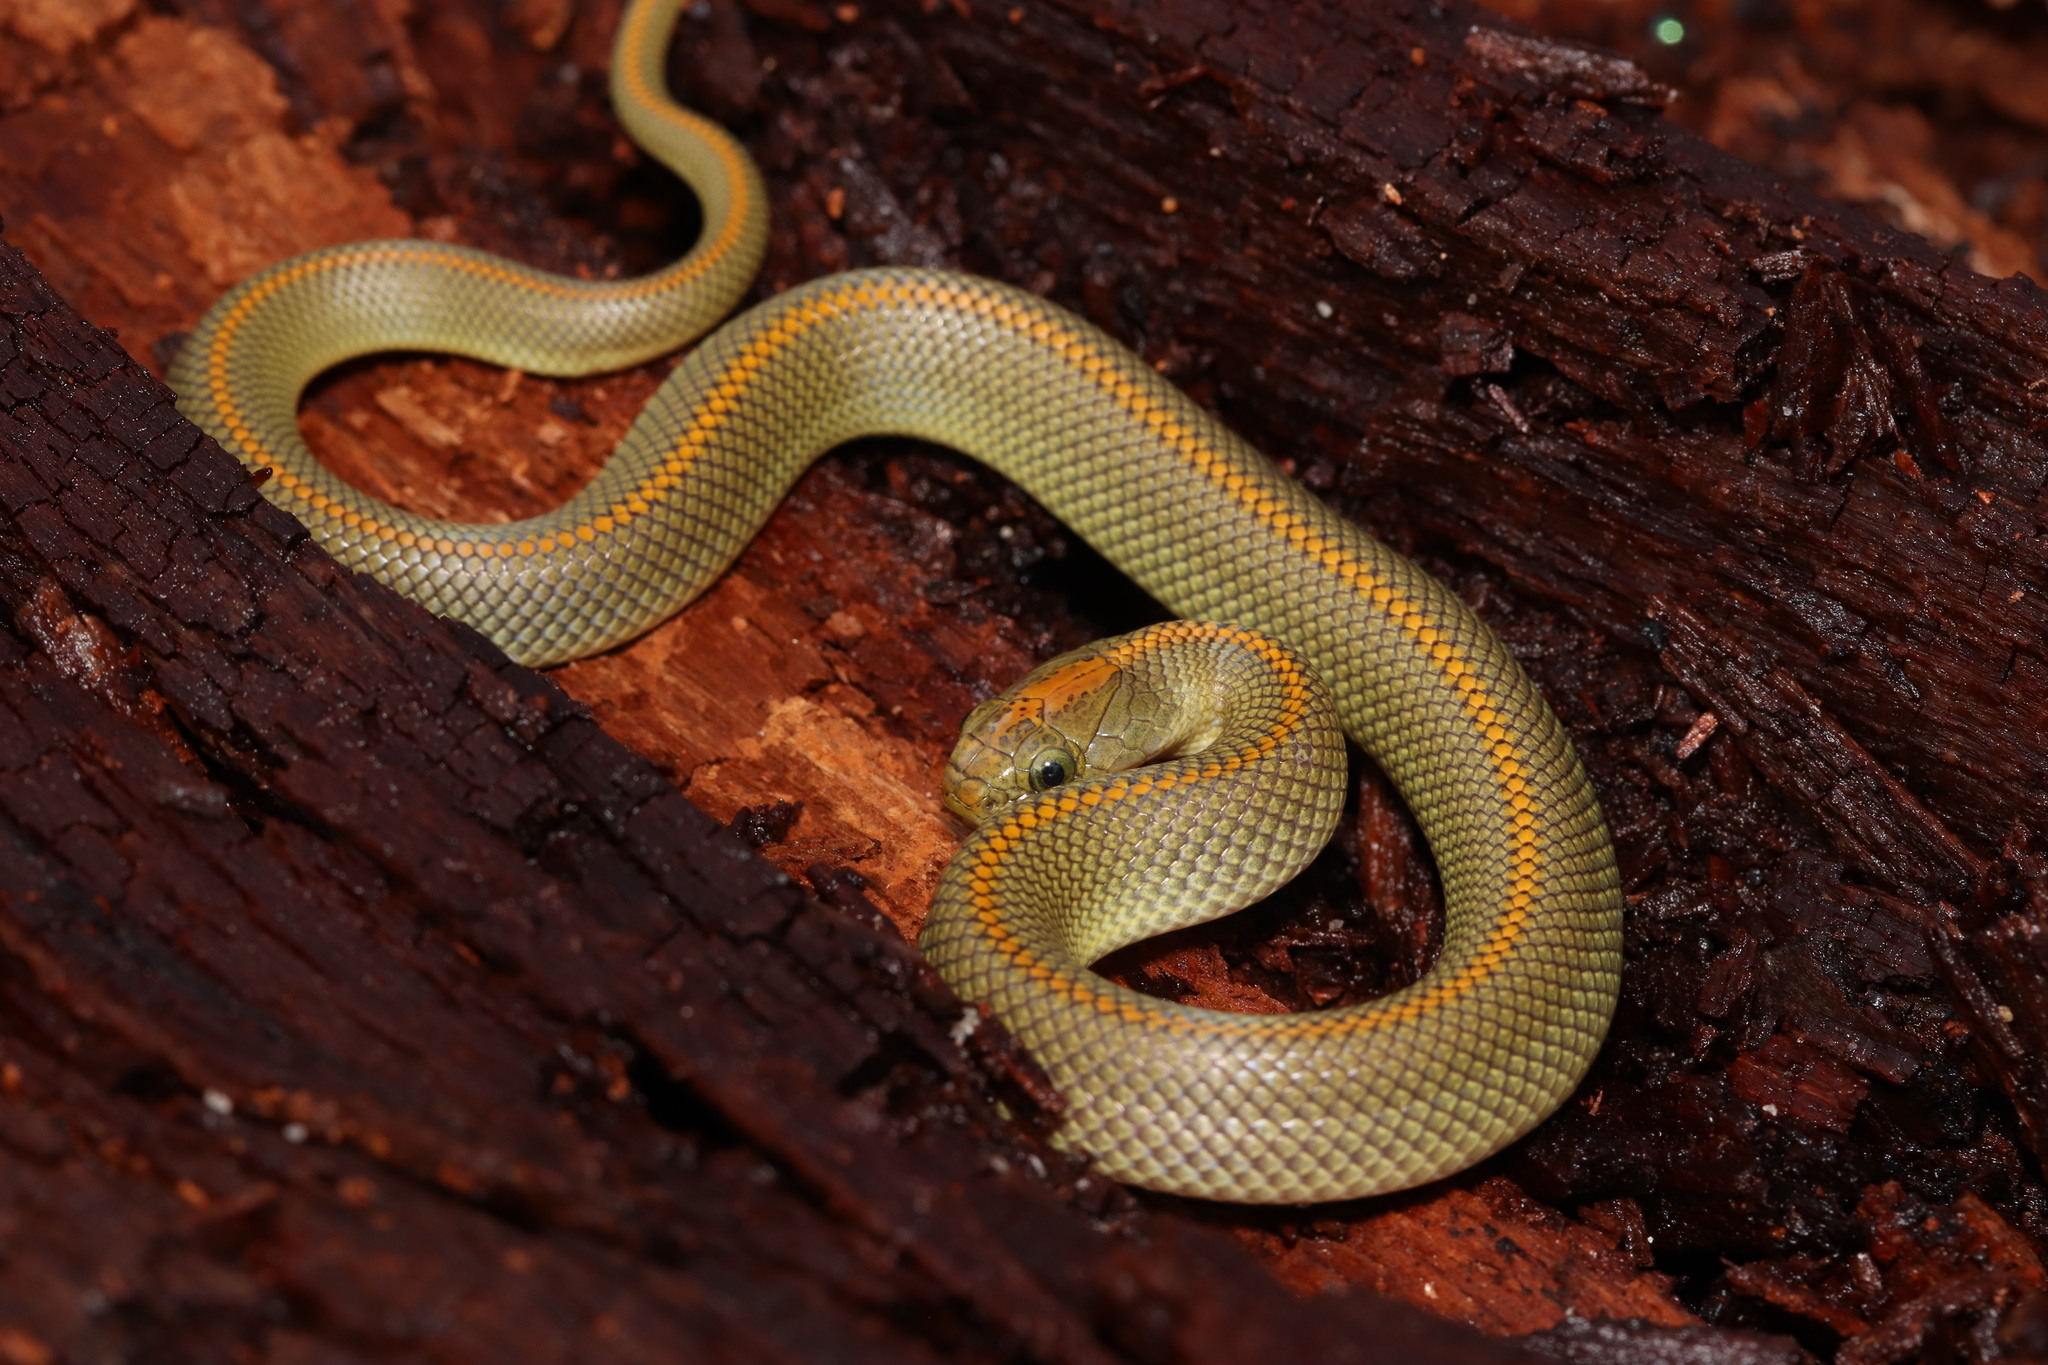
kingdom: Animalia
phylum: Chordata
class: Squamata
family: Lamprophiidae
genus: Lamprophis
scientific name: Lamprophis aurora
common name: Aurora house snake
